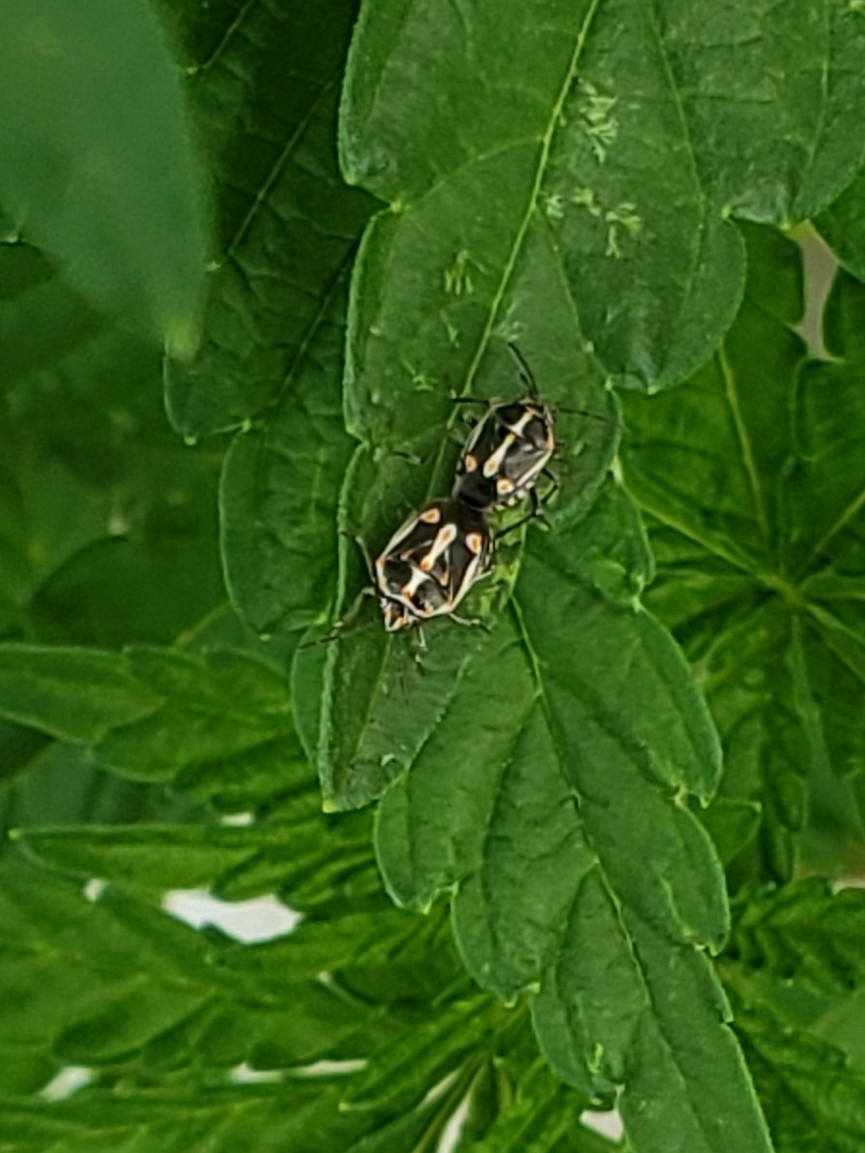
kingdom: Animalia
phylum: Arthropoda
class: Insecta
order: Hemiptera
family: Pentatomidae
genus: Bagrada
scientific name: Bagrada hilaris
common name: Bagrada bug
